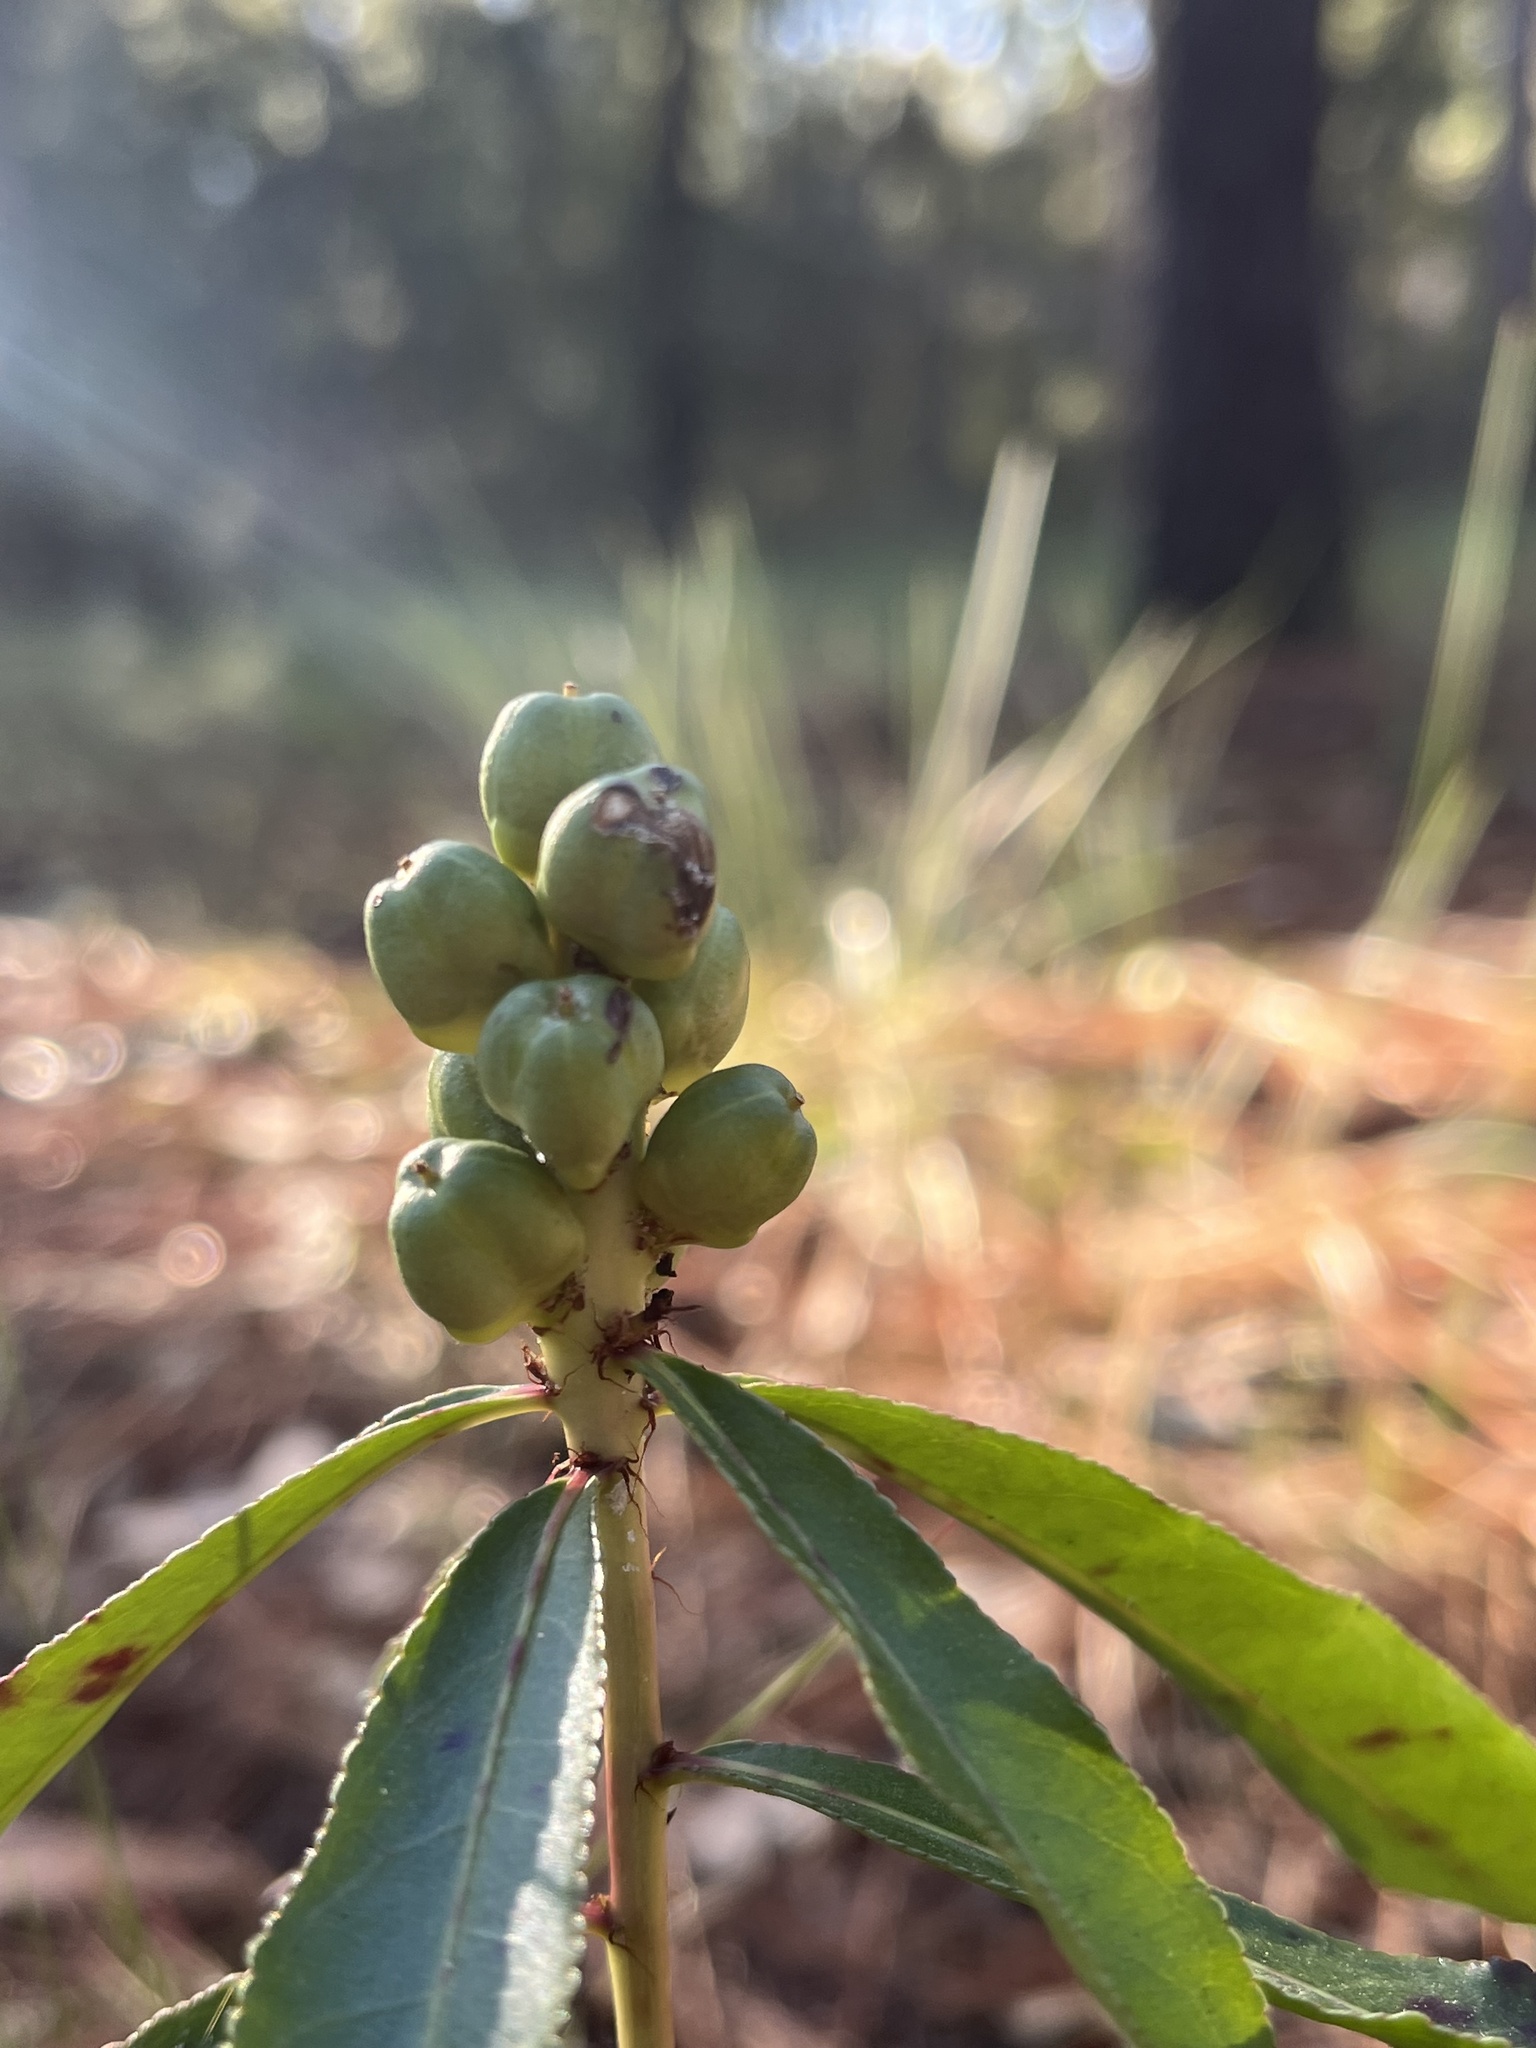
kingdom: Plantae
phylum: Tracheophyta
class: Magnoliopsida
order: Malpighiales
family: Euphorbiaceae
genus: Stillingia
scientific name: Stillingia sylvatica
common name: Queen's-delight
